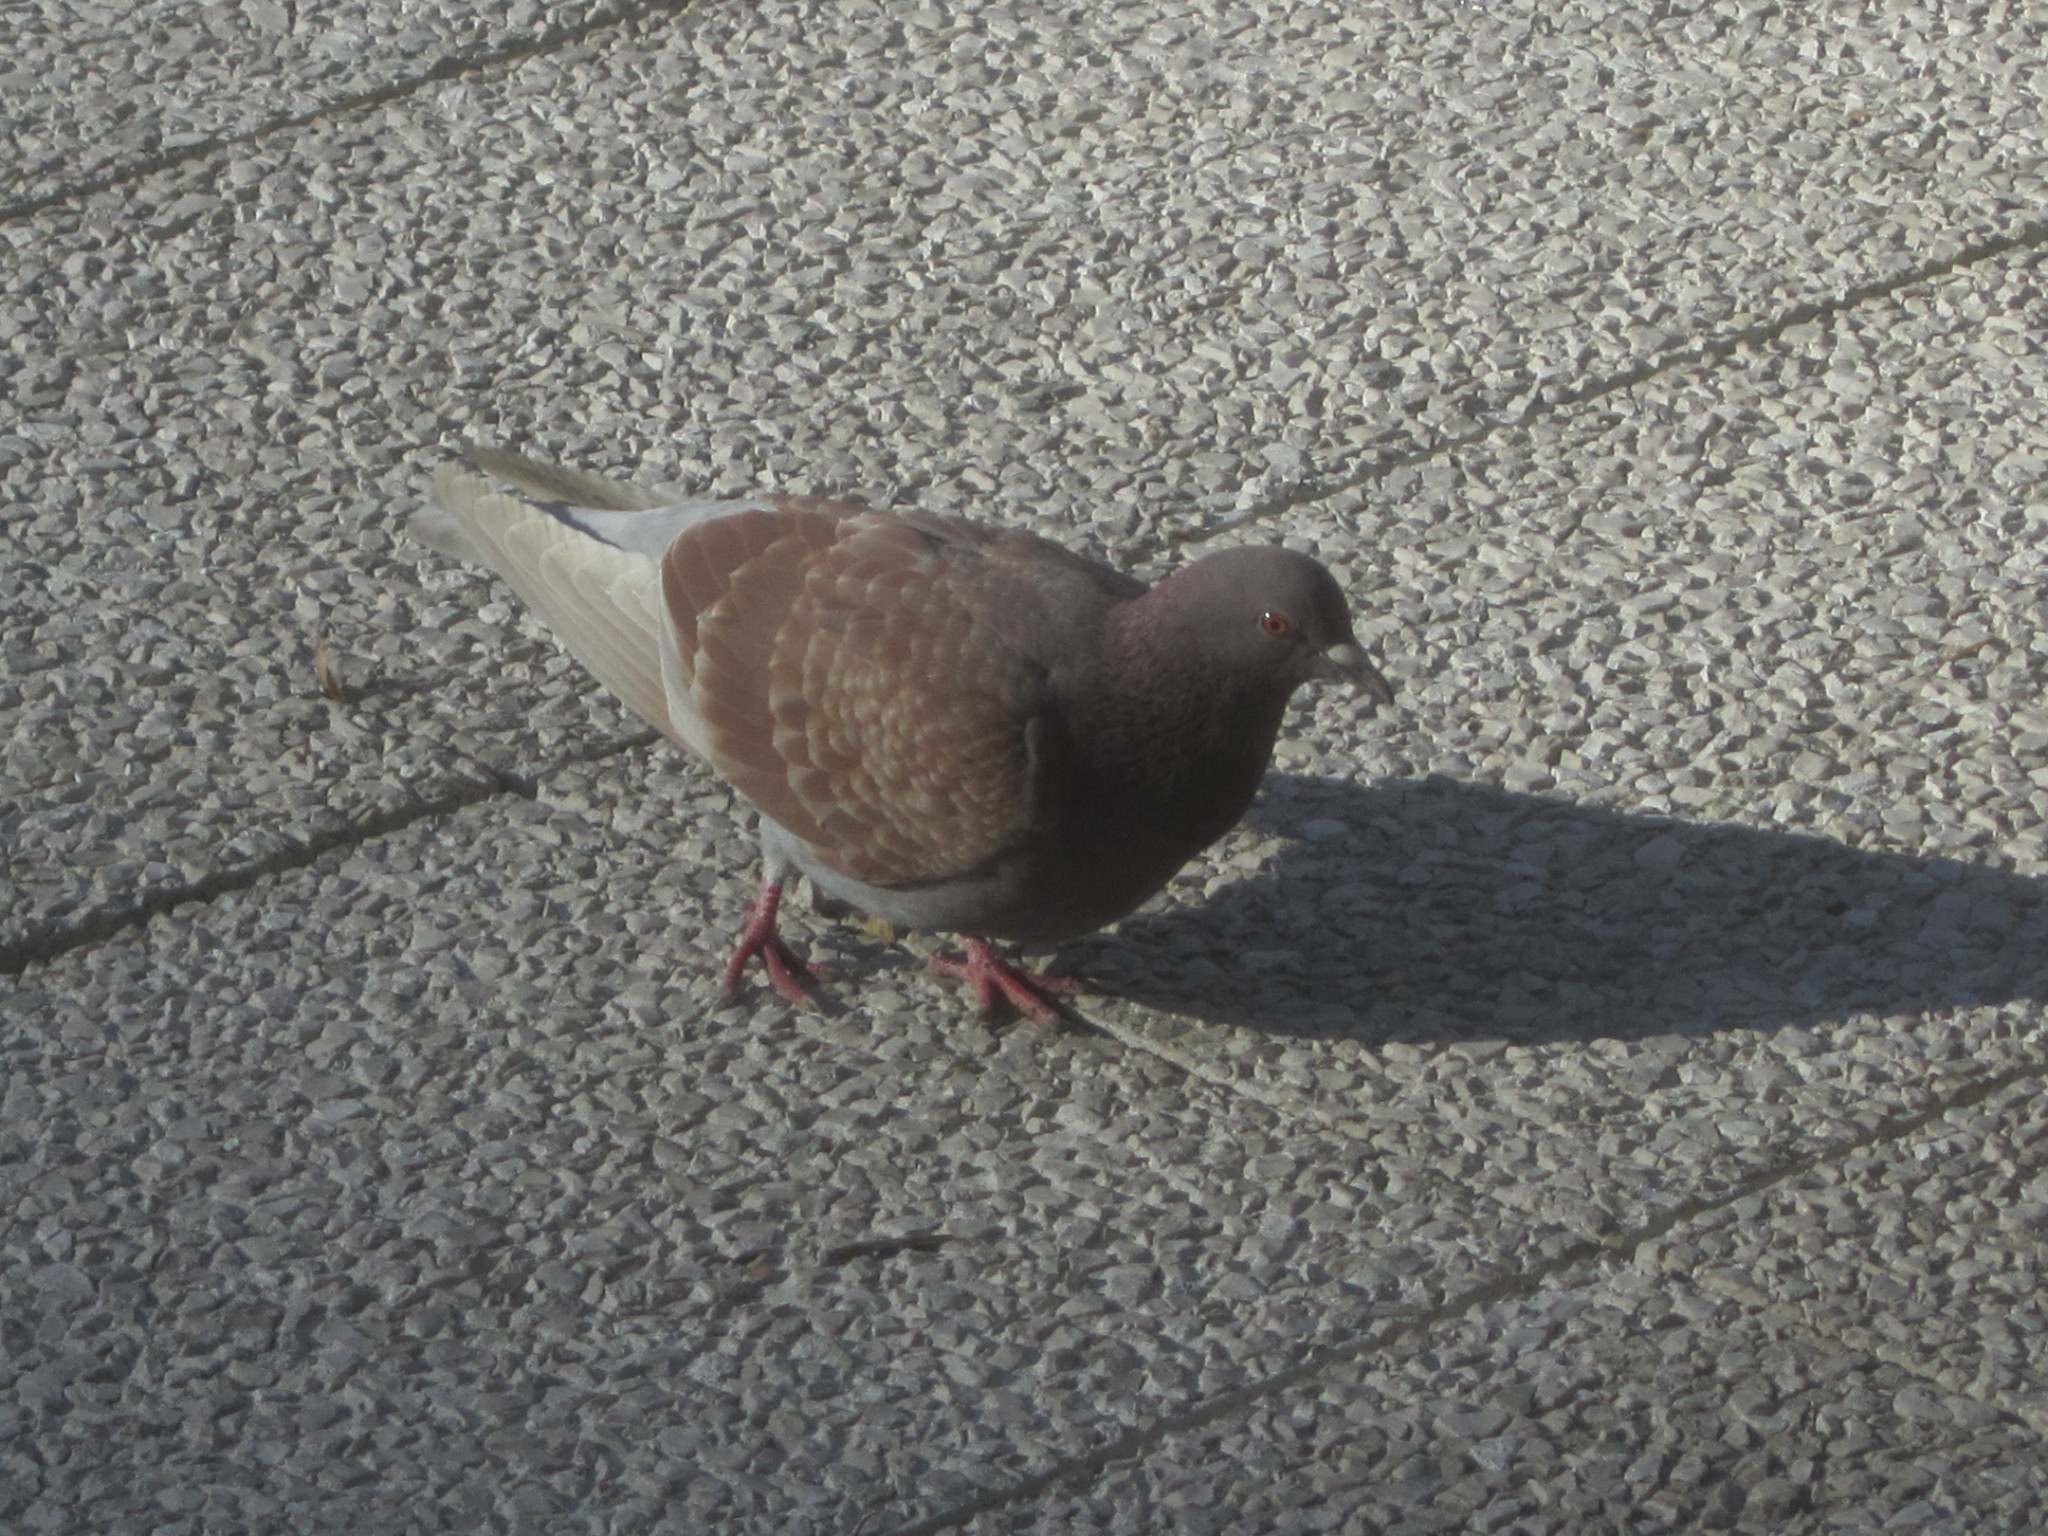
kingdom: Animalia
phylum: Chordata
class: Aves
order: Columbiformes
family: Columbidae
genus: Columba
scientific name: Columba livia
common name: Rock pigeon
